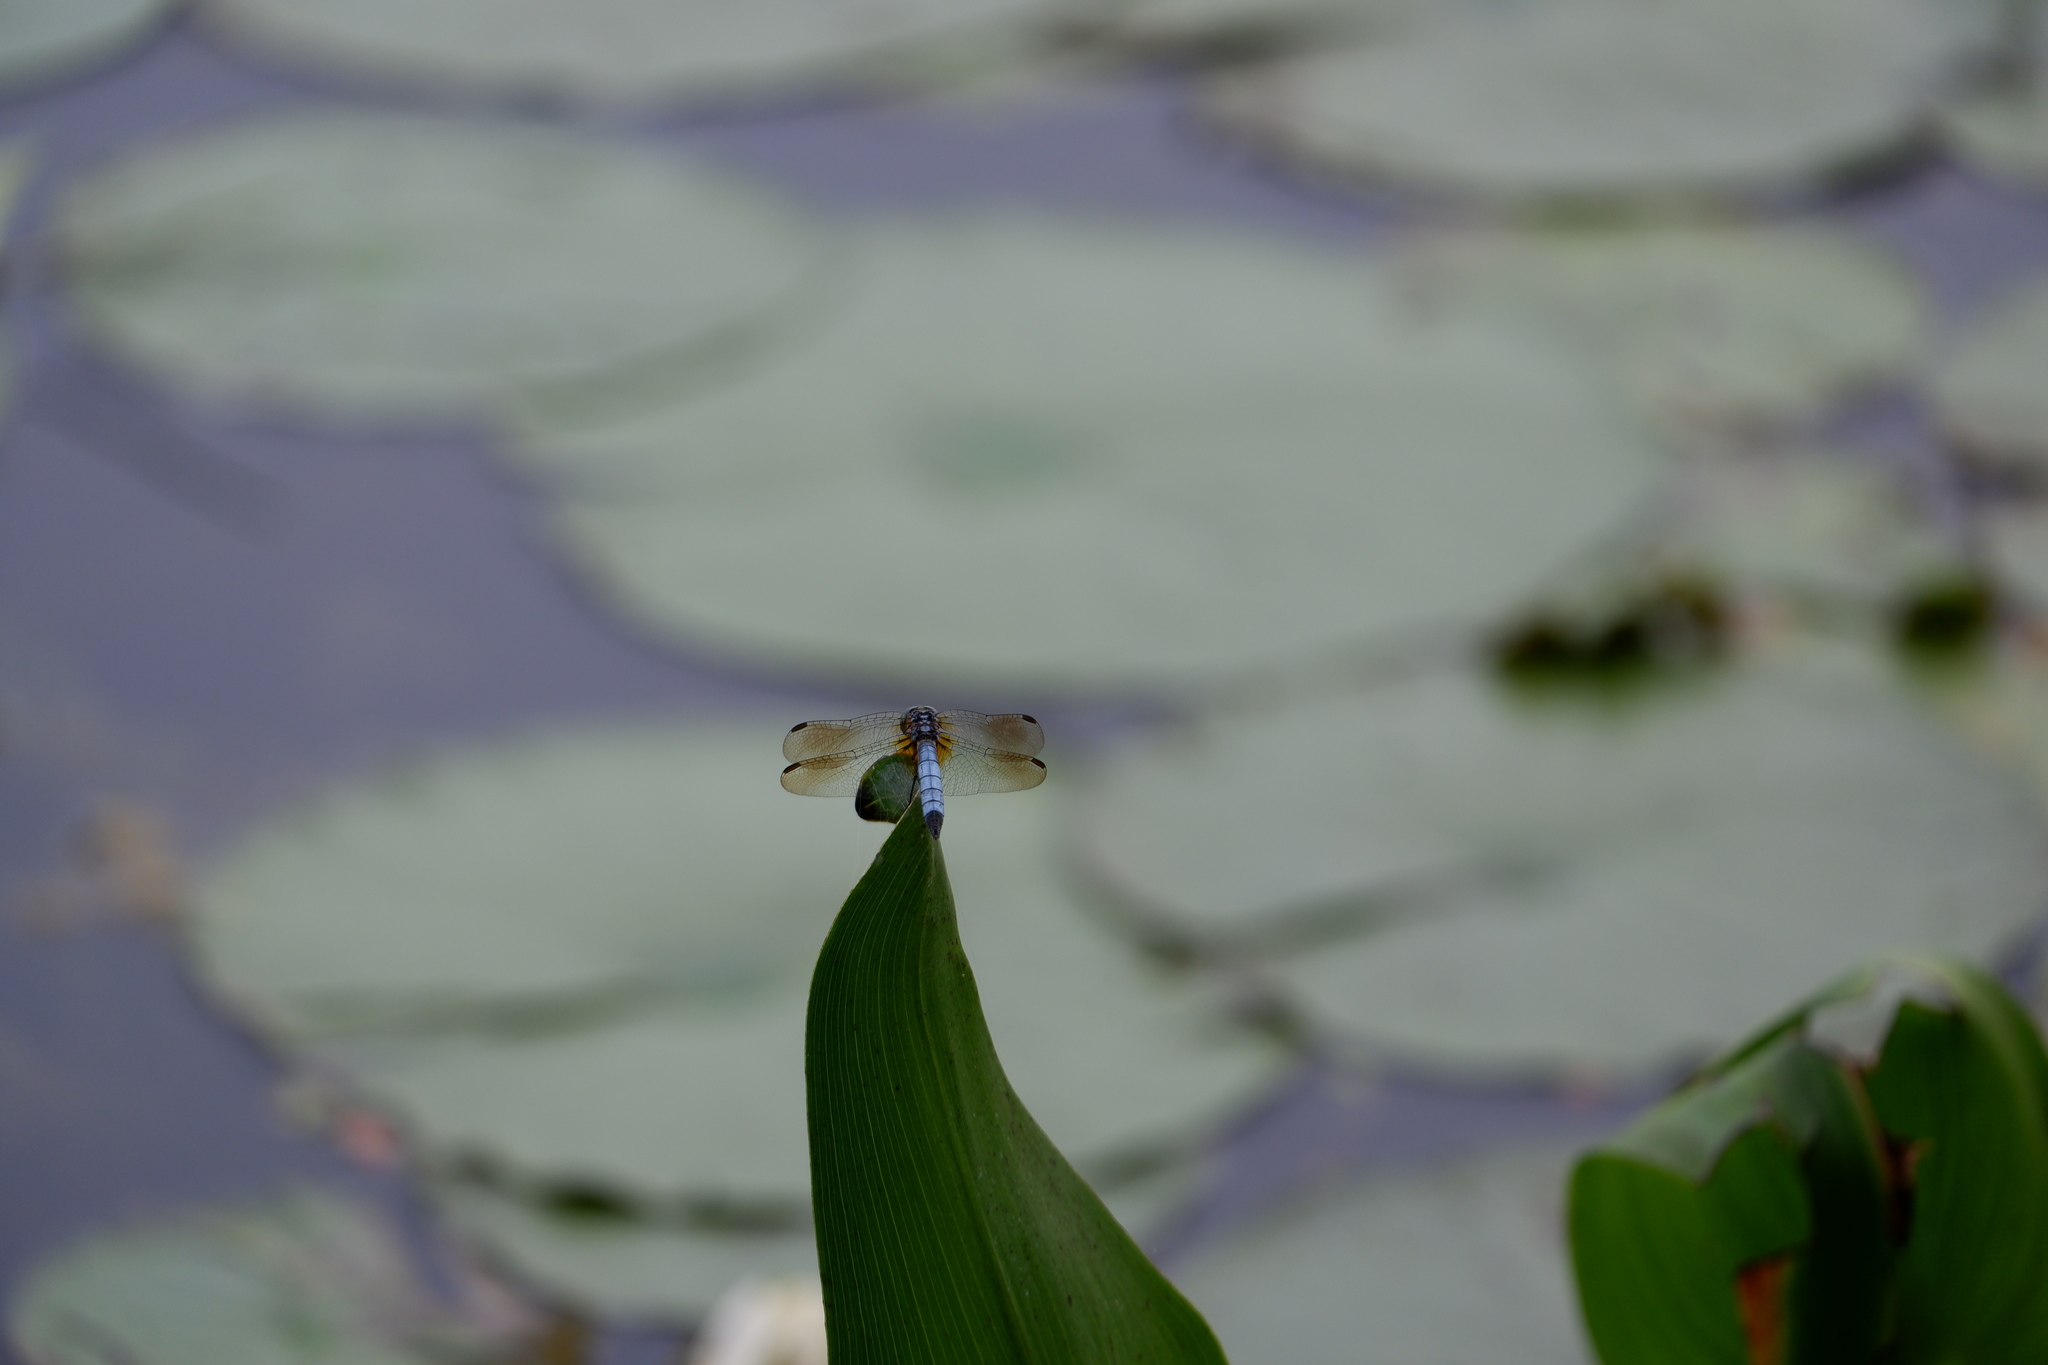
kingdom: Animalia
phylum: Arthropoda
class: Insecta
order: Odonata
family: Libellulidae
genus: Pachydiplax
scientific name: Pachydiplax longipennis
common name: Blue dasher
